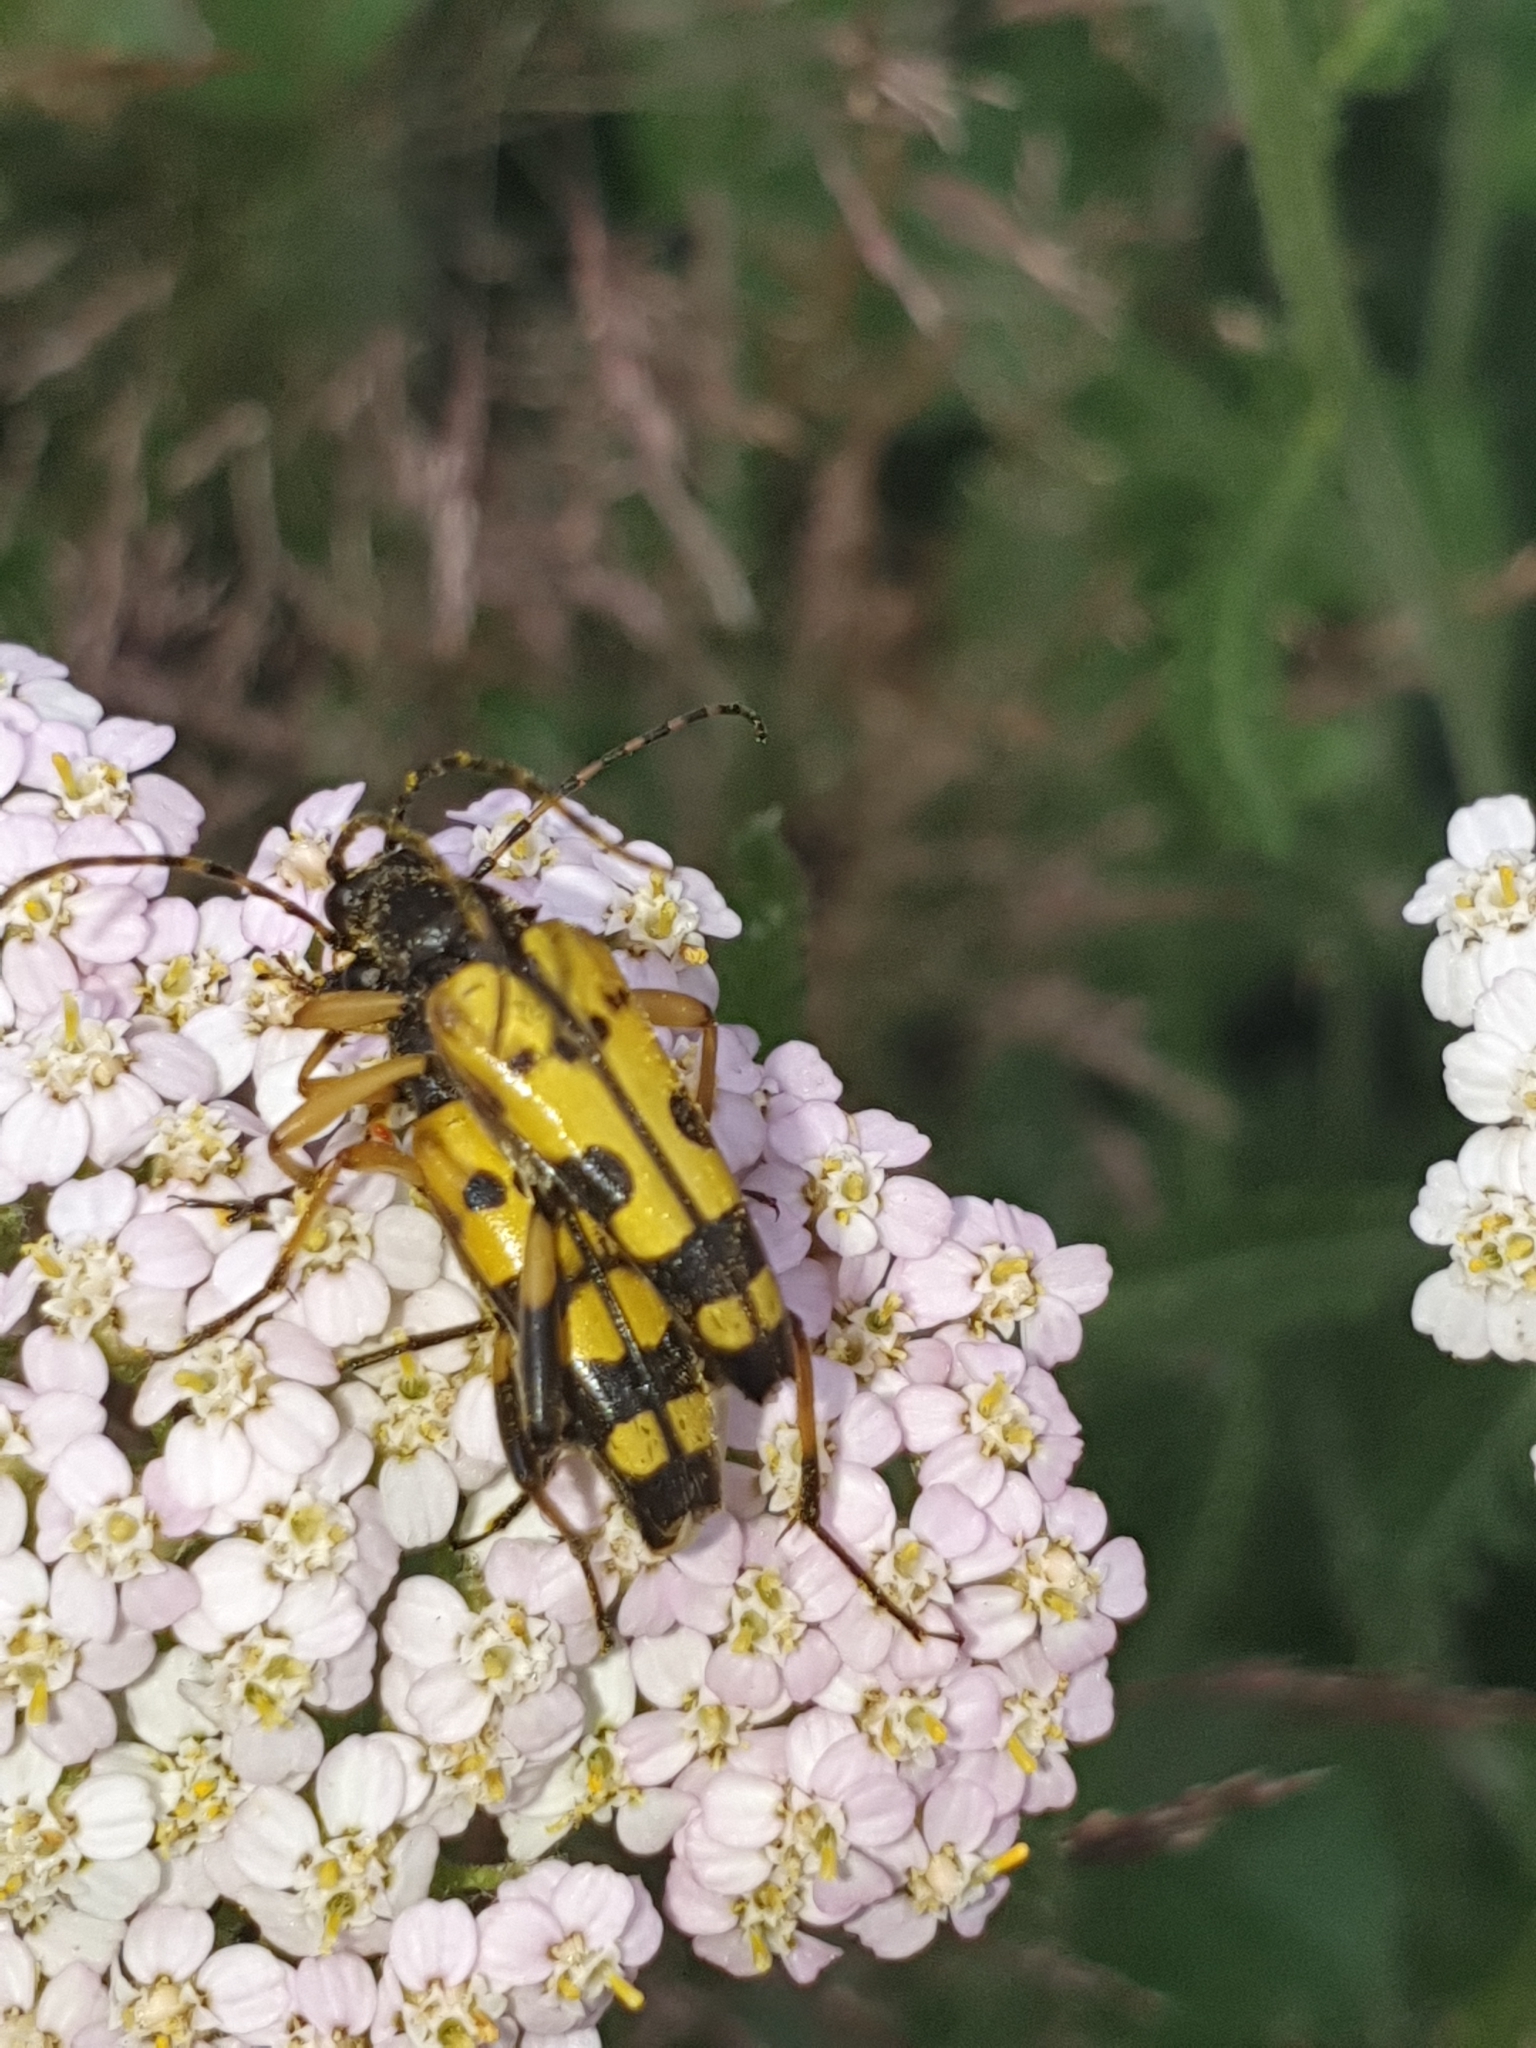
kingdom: Animalia
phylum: Arthropoda
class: Insecta
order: Coleoptera
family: Cerambycidae
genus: Rutpela
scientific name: Rutpela maculata
